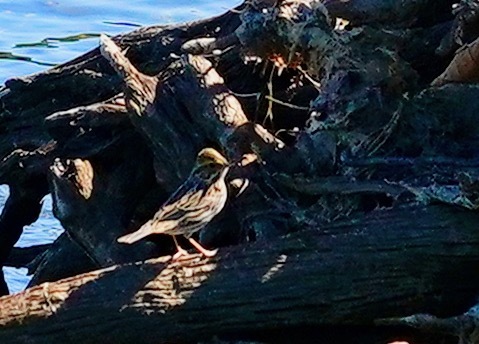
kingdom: Animalia
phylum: Chordata
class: Aves
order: Passeriformes
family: Passerellidae
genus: Passerculus
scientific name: Passerculus sandwichensis
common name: Savannah sparrow
